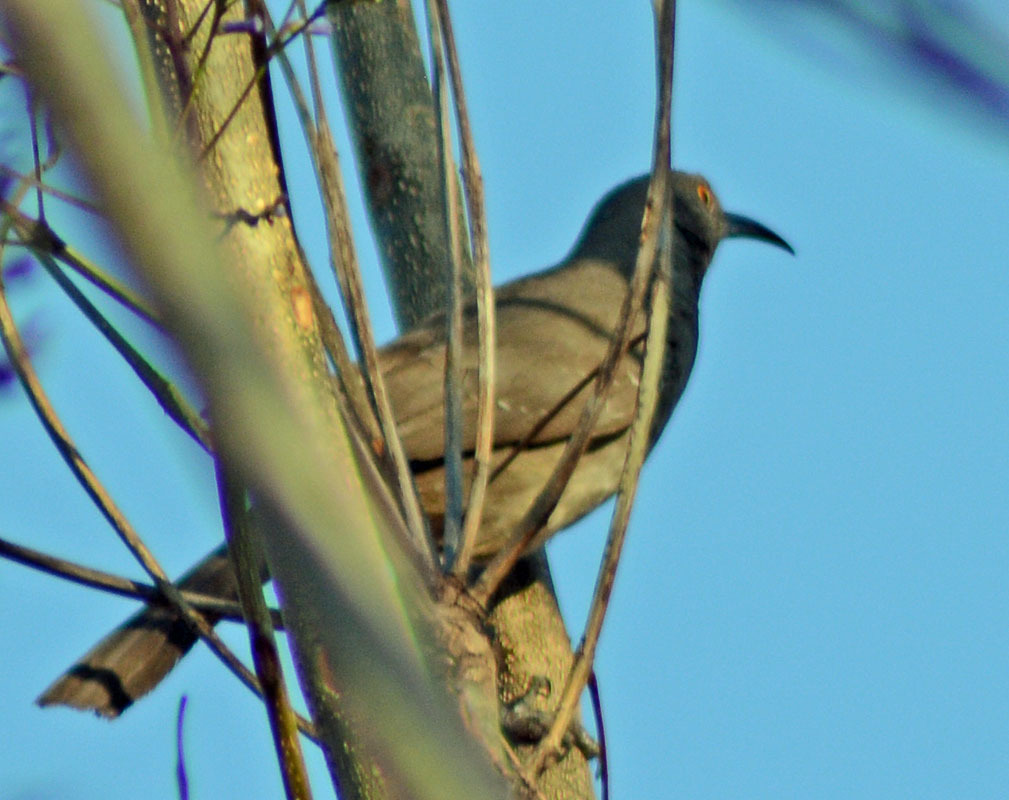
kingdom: Animalia
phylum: Chordata
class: Aves
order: Passeriformes
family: Mimidae
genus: Toxostoma
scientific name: Toxostoma curvirostre
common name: Curve-billed thrasher
